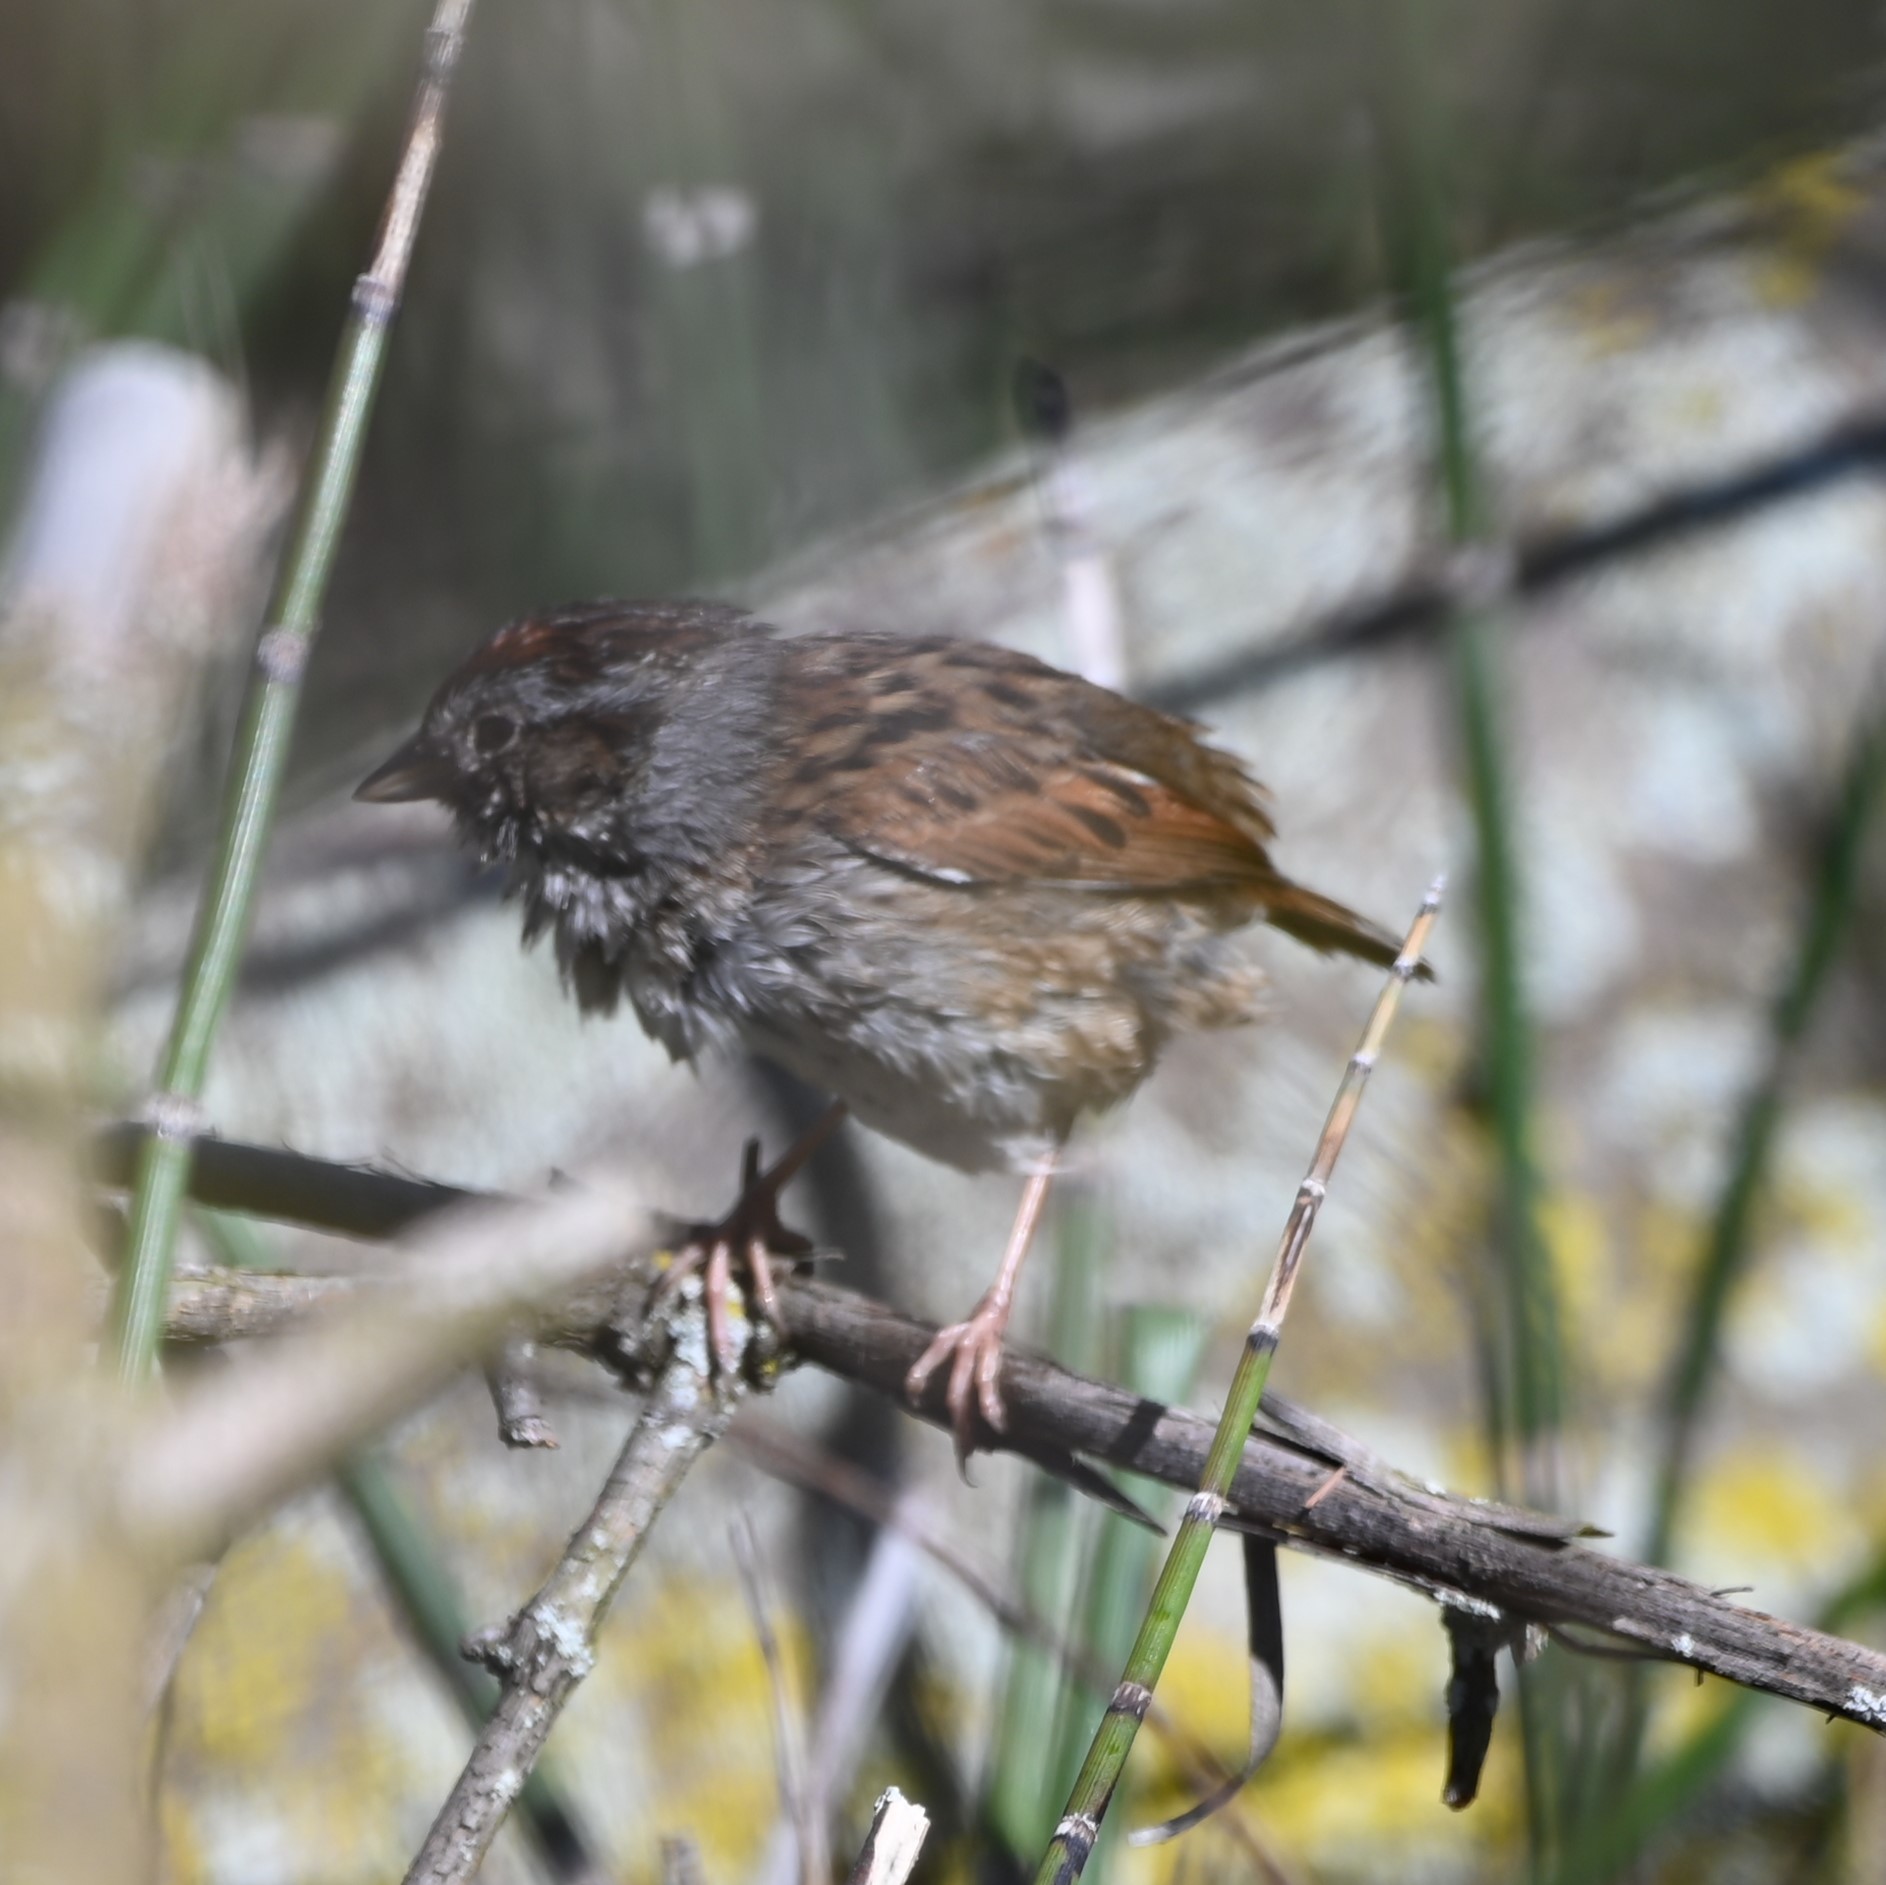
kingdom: Animalia
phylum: Chordata
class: Aves
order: Passeriformes
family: Passerellidae
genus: Melospiza
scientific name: Melospiza georgiana
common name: Swamp sparrow
